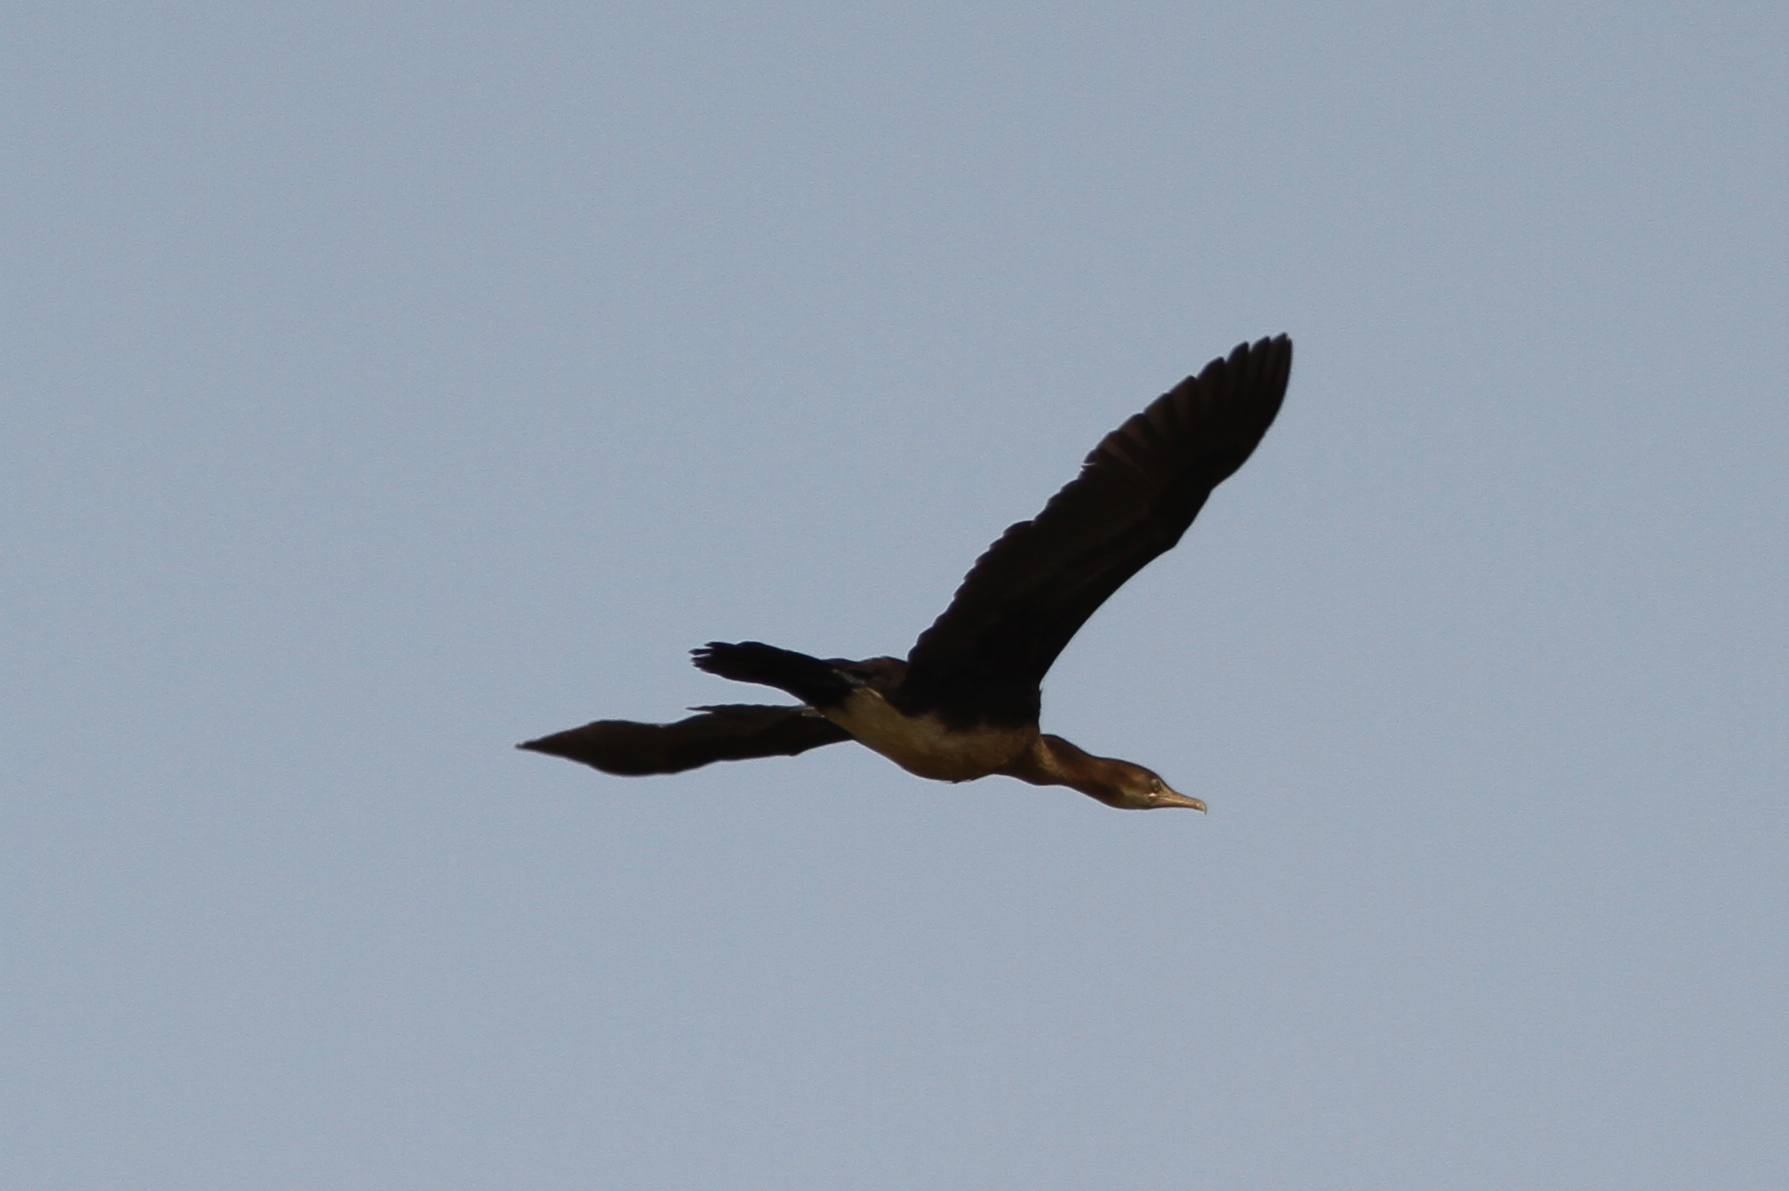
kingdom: Animalia
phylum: Chordata
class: Aves
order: Suliformes
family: Phalacrocoracidae
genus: Microcarbo
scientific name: Microcarbo africanus
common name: Long-tailed cormorant
